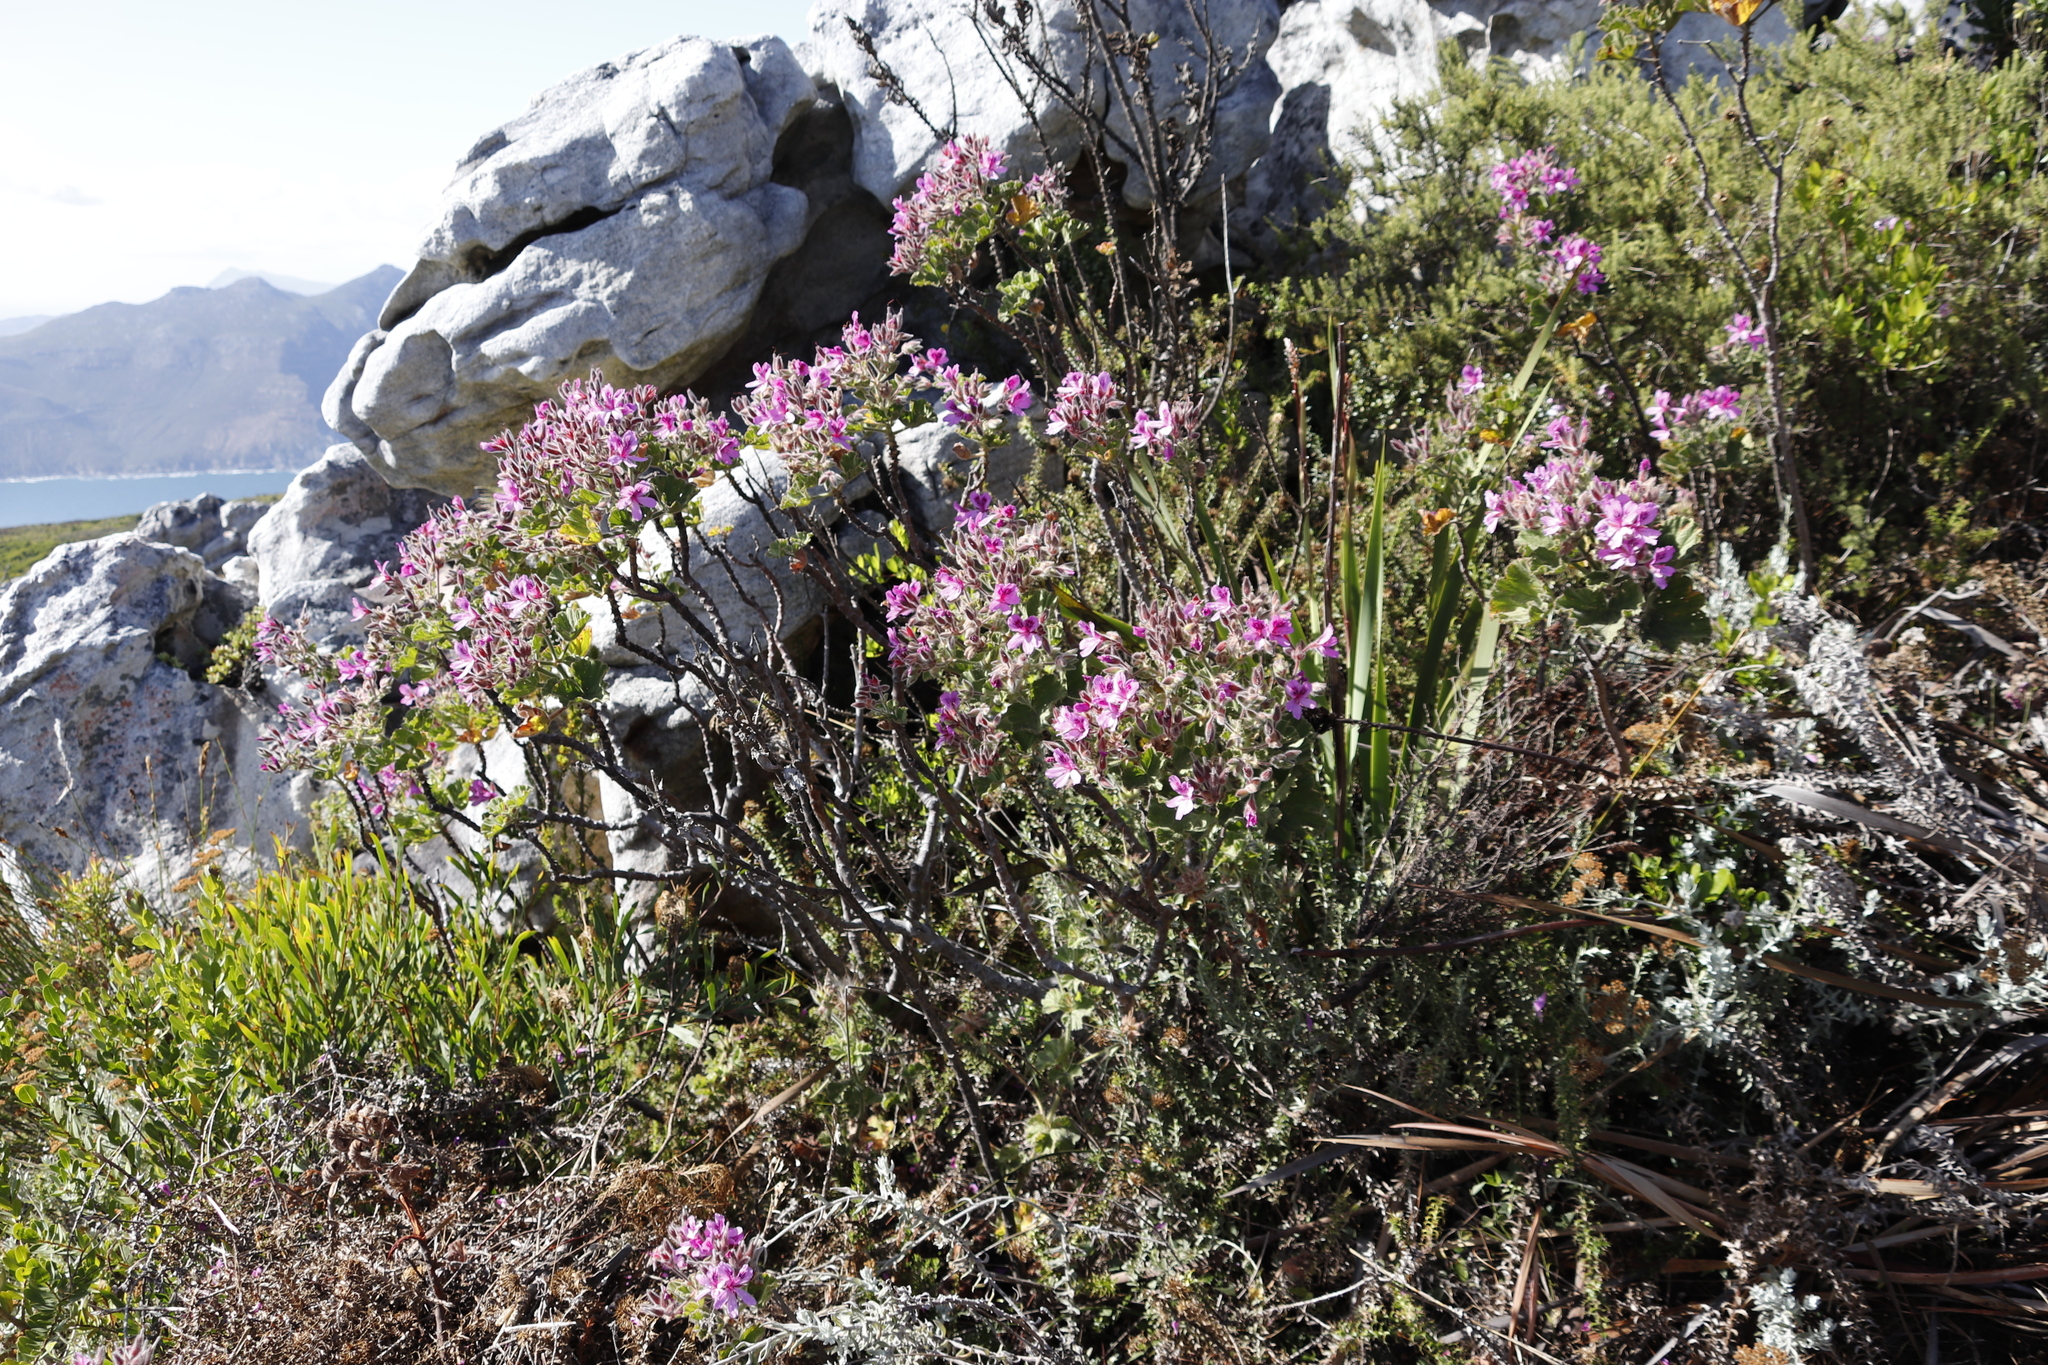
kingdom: Plantae
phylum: Tracheophyta
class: Magnoliopsida
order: Geraniales
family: Geraniaceae
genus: Pelargonium
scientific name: Pelargonium cucullatum
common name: Tree pelargonium
